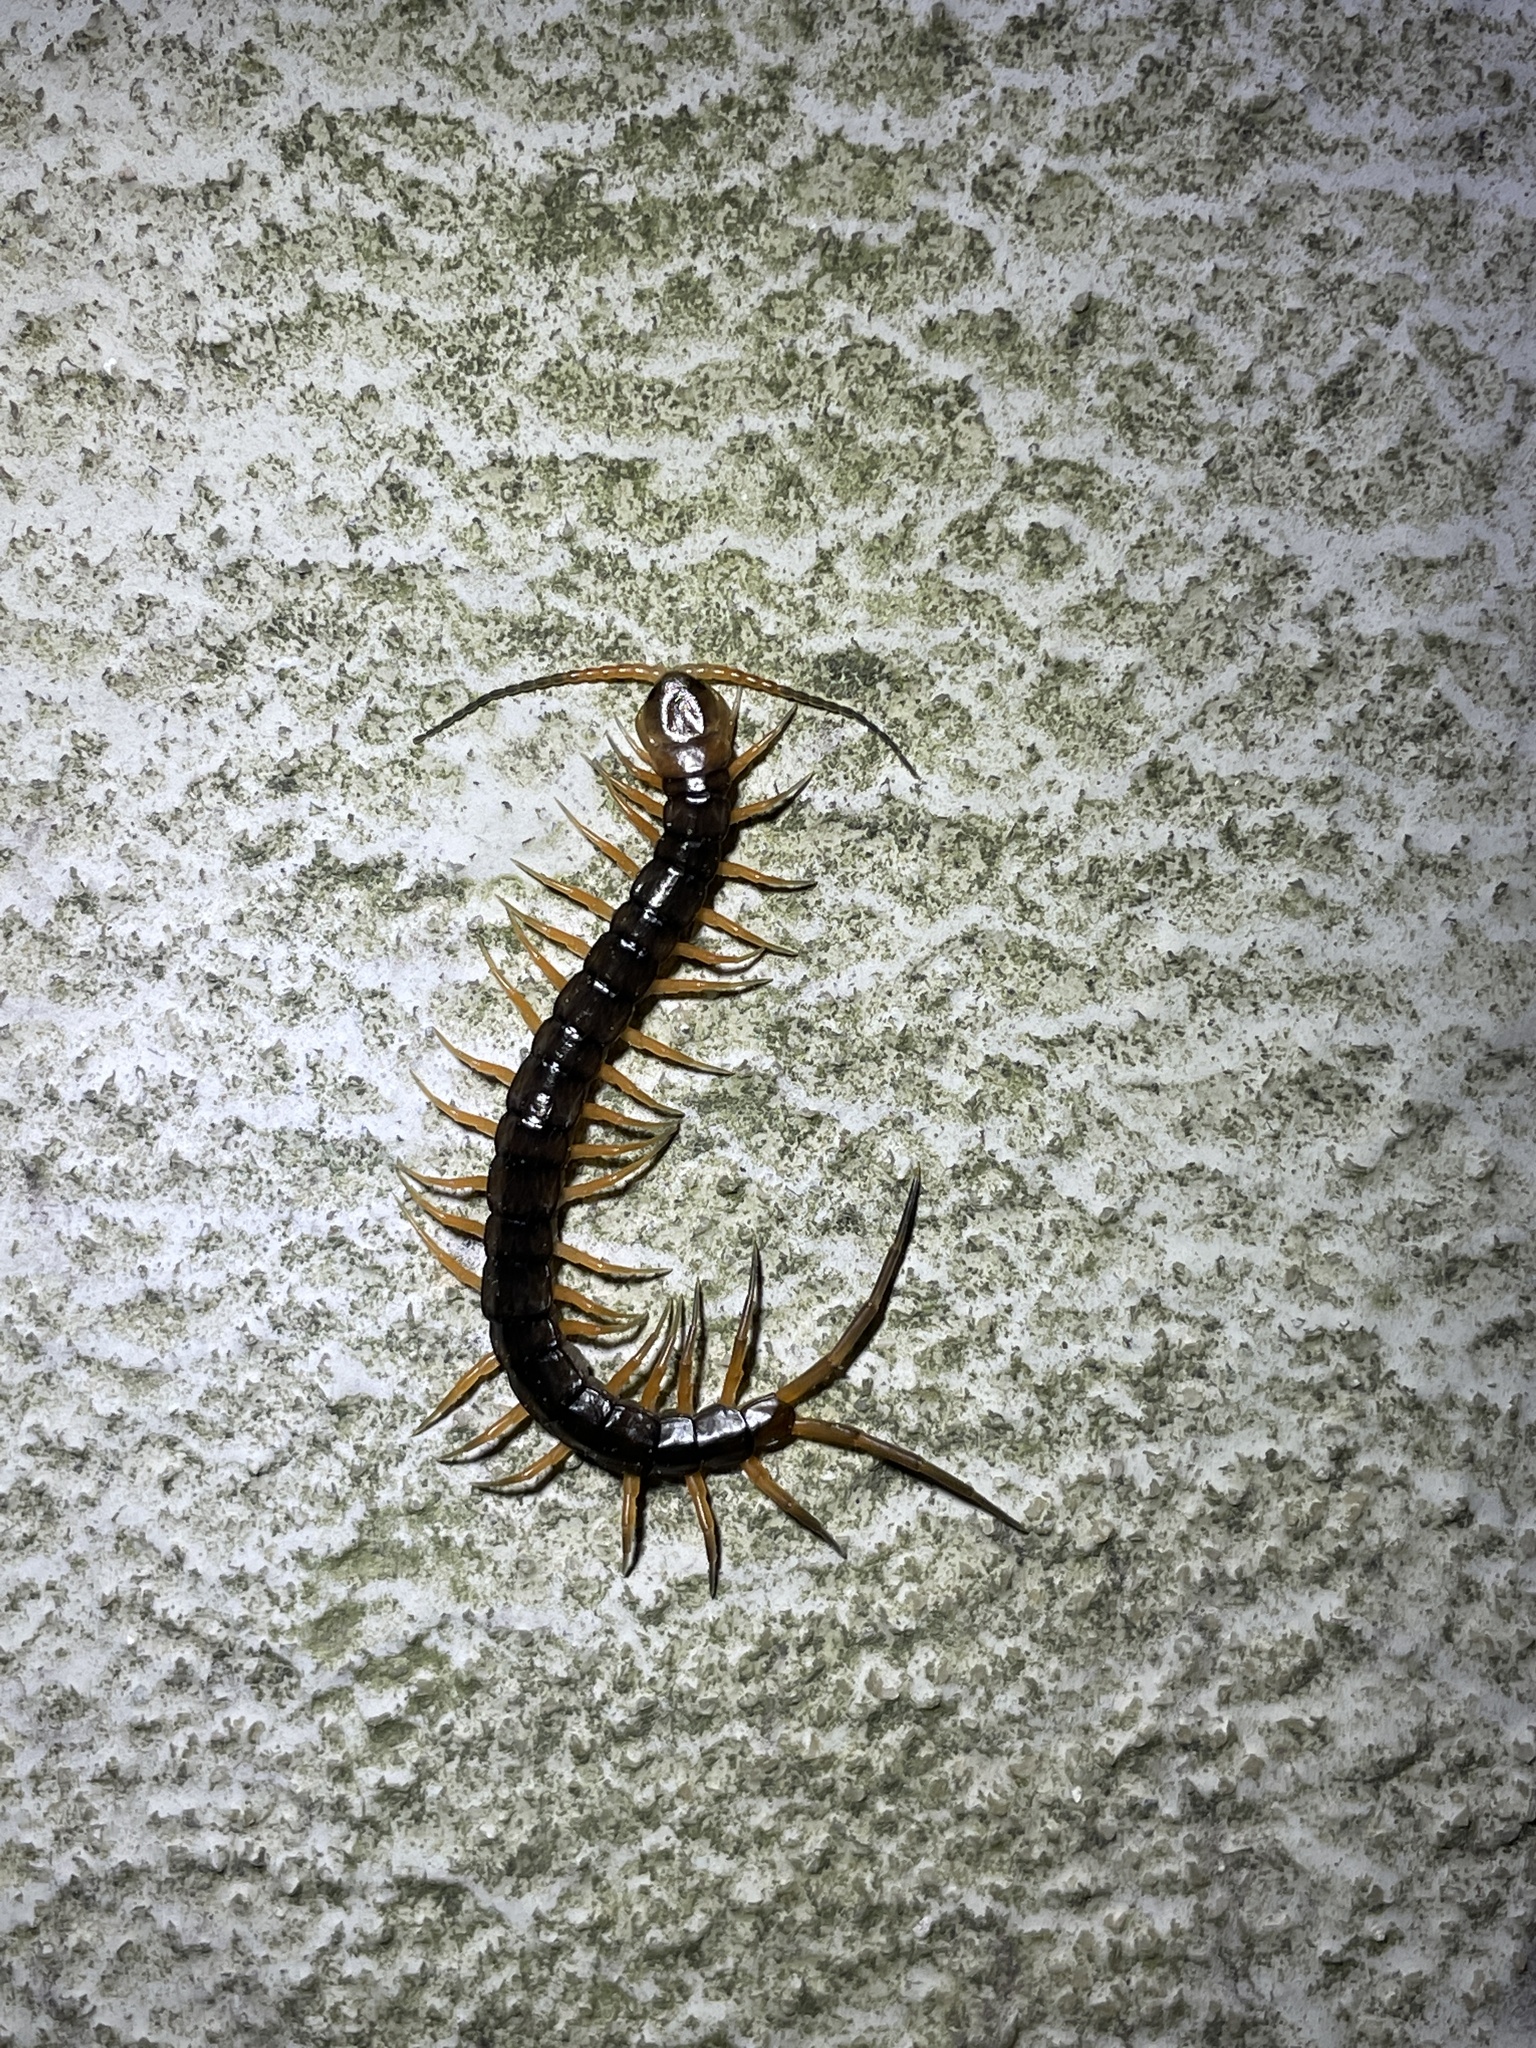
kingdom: Animalia
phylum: Arthropoda
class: Chilopoda
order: Scolopendromorpha
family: Scolopendridae
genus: Scolopendra
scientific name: Scolopendra dehaani
